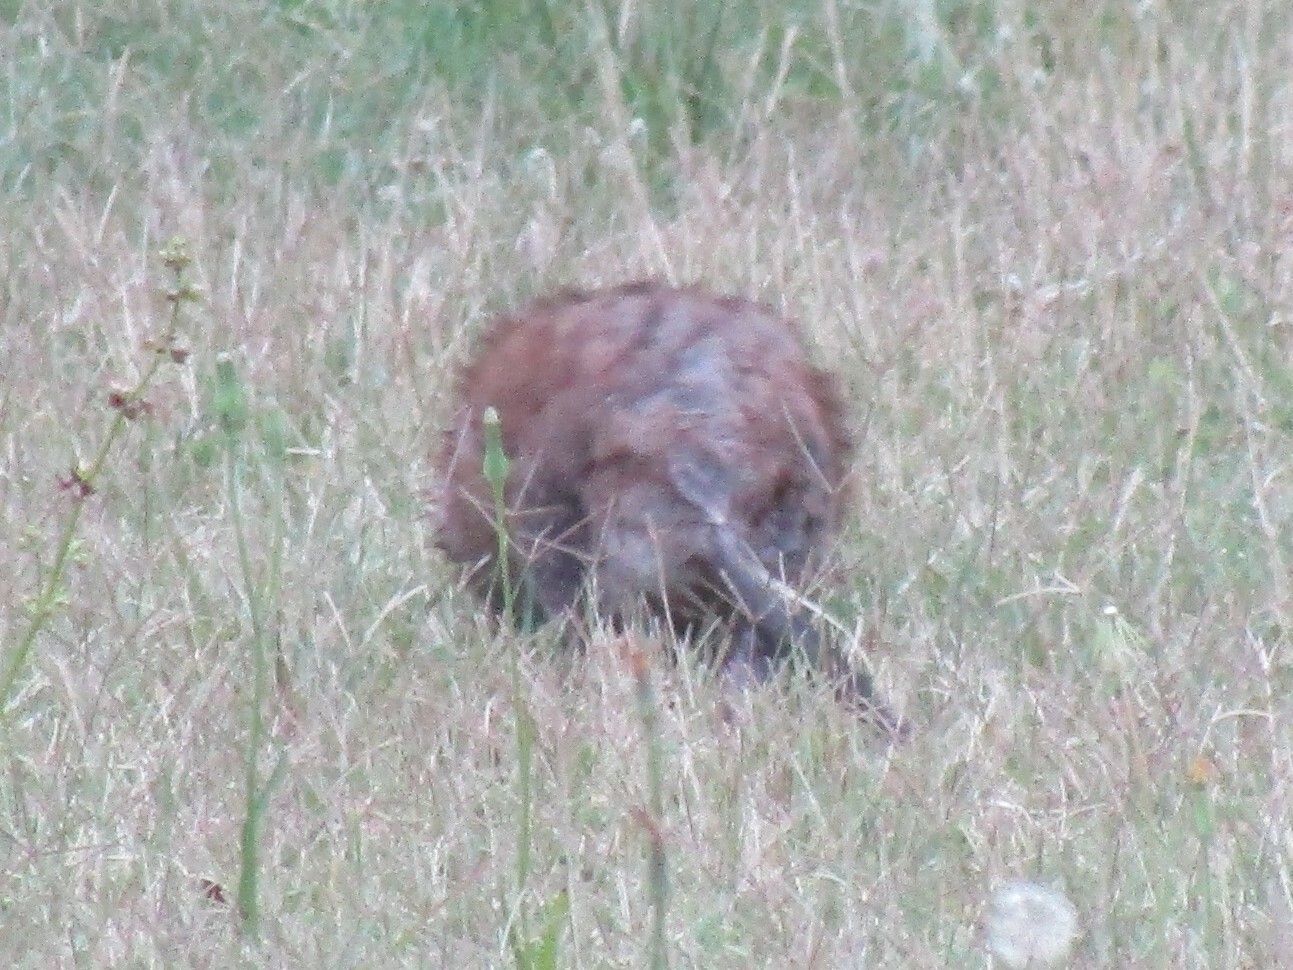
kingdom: Animalia
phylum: Chordata
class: Mammalia
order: Rodentia
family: Cricetidae
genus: Ondatra
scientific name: Ondatra zibethicus
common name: Muskrat
